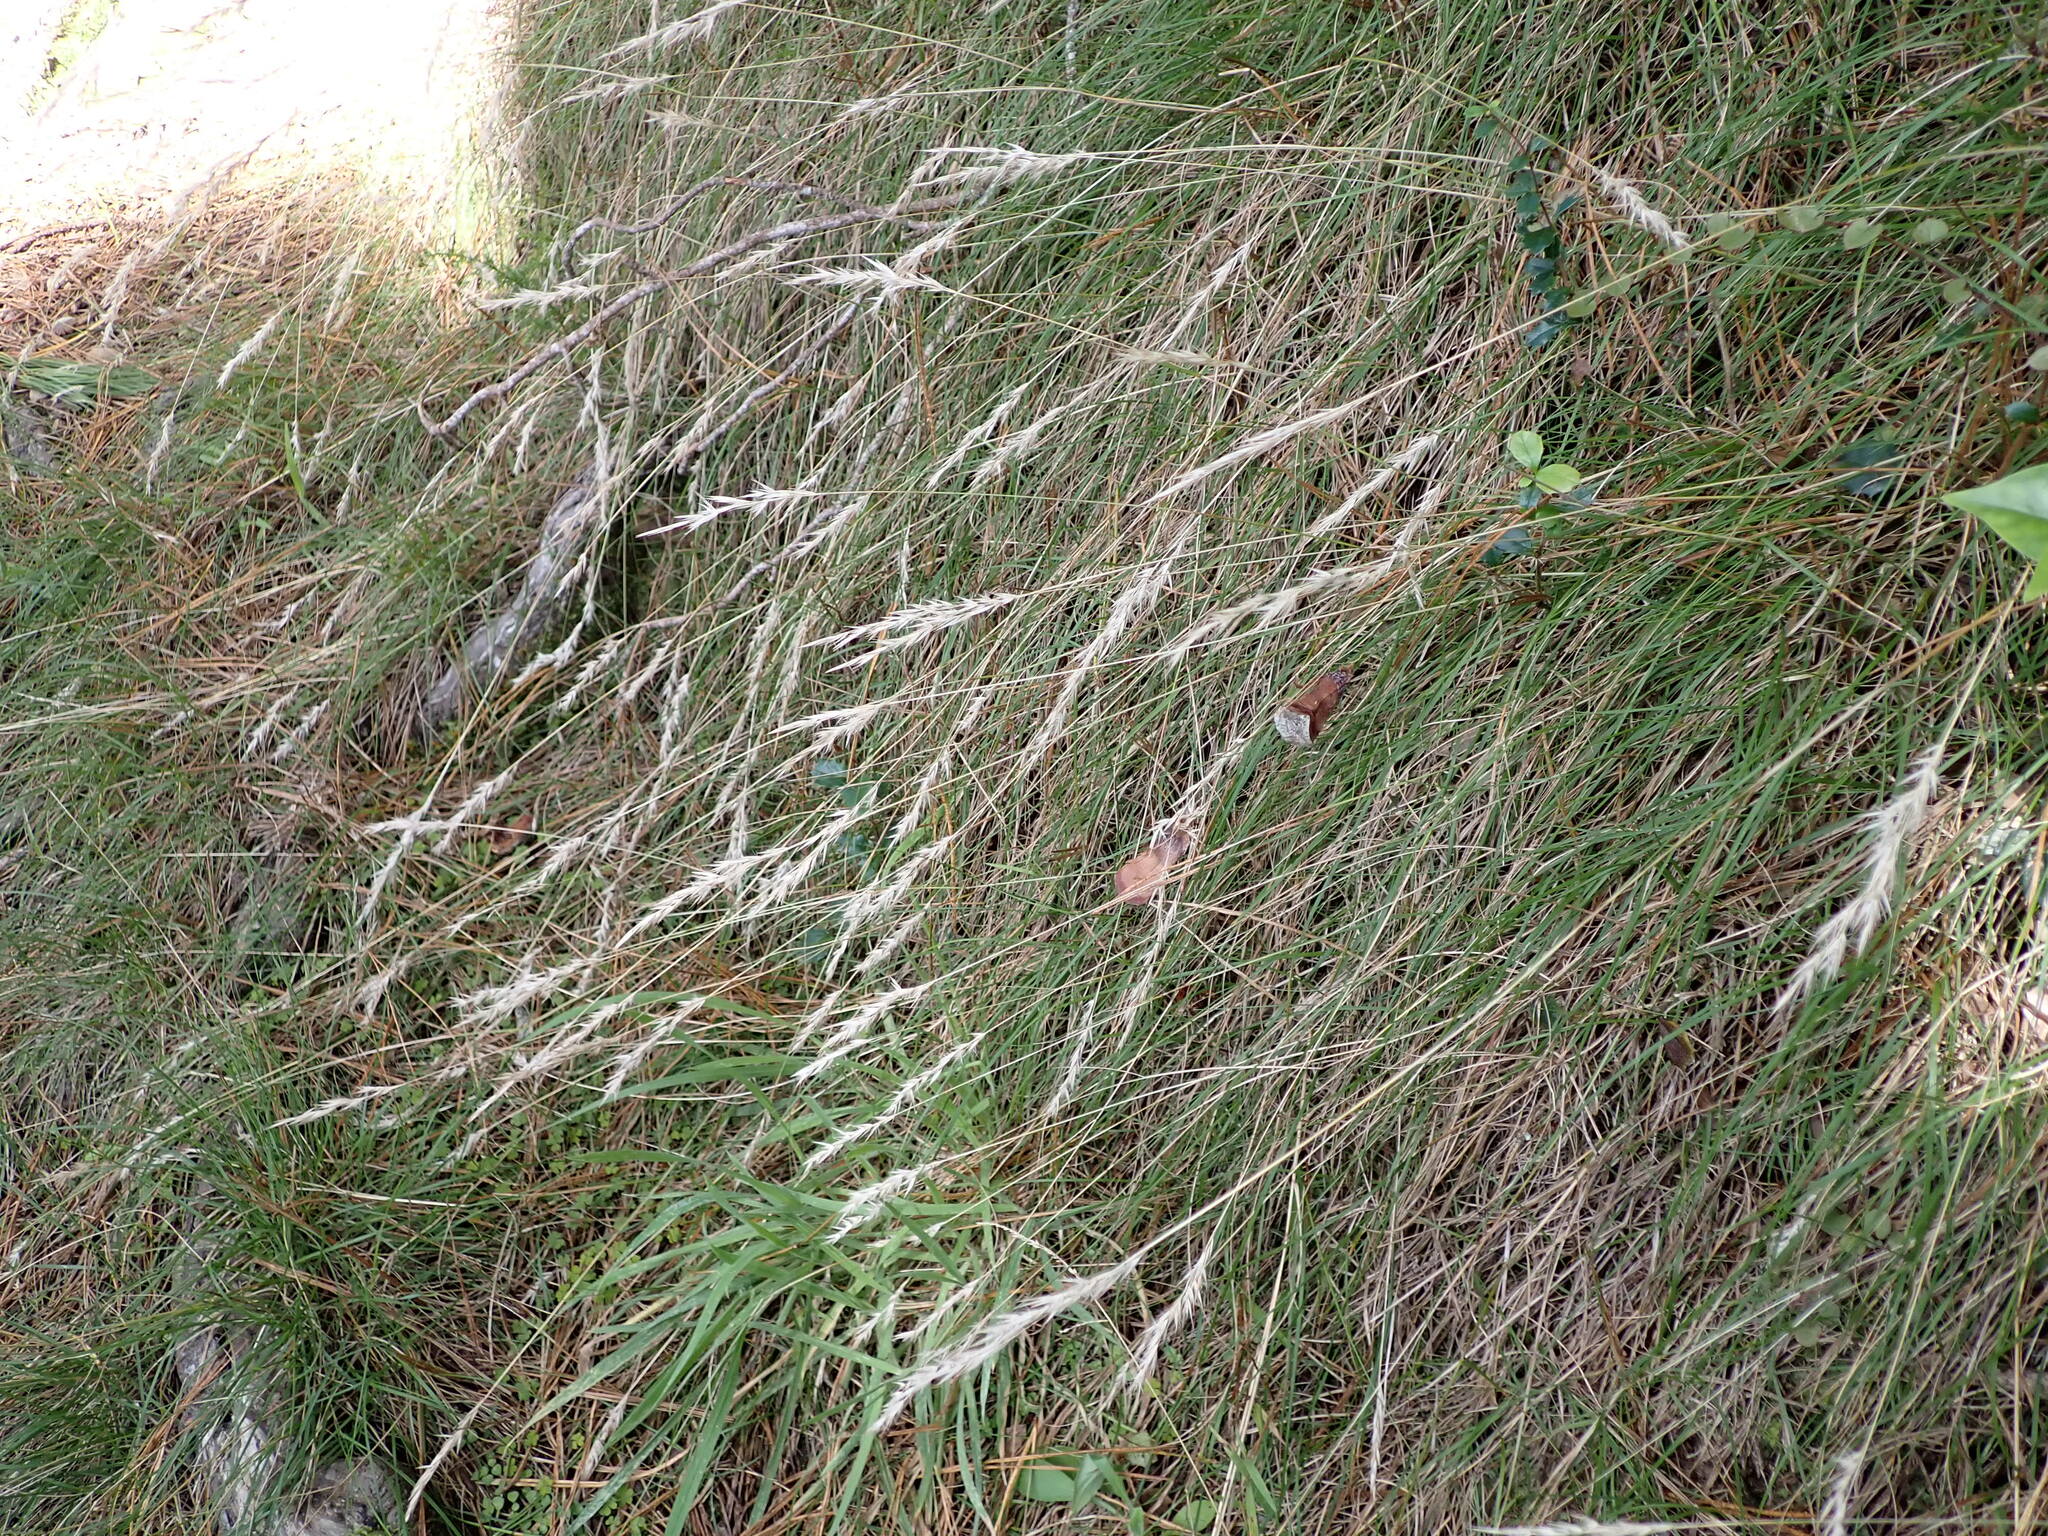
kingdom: Plantae
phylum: Tracheophyta
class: Liliopsida
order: Poales
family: Poaceae
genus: Rytidosperma
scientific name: Rytidosperma gracile
